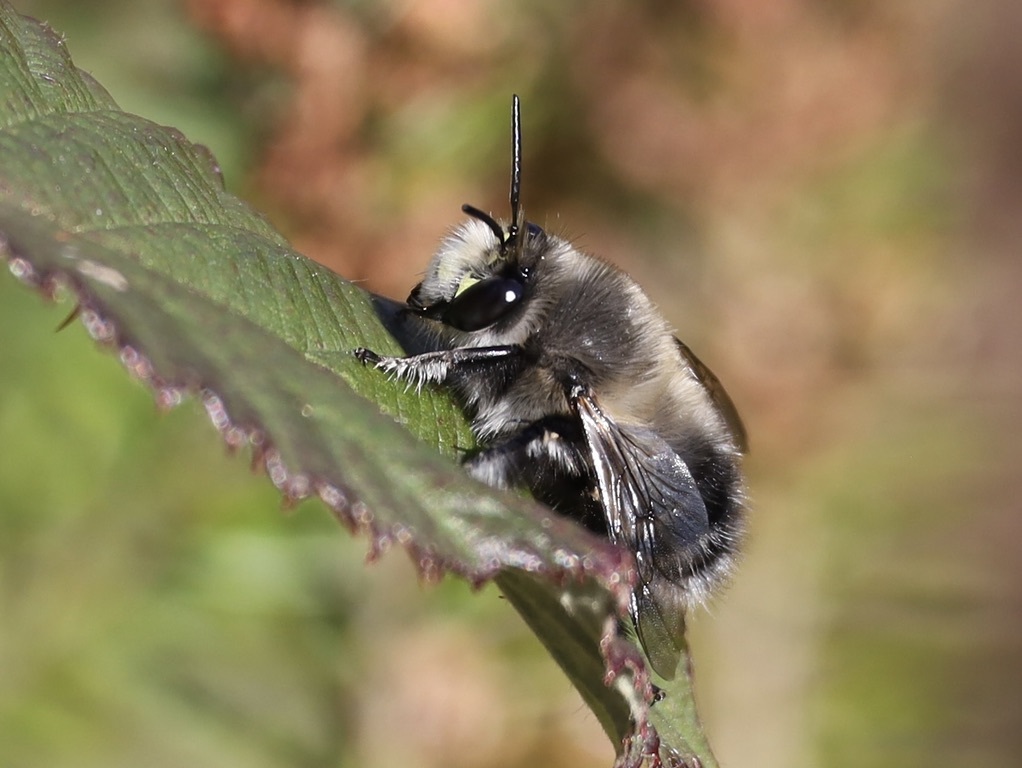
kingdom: Animalia
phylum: Arthropoda
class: Insecta
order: Hymenoptera
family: Apidae
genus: Anthophora
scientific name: Anthophora pacifica
